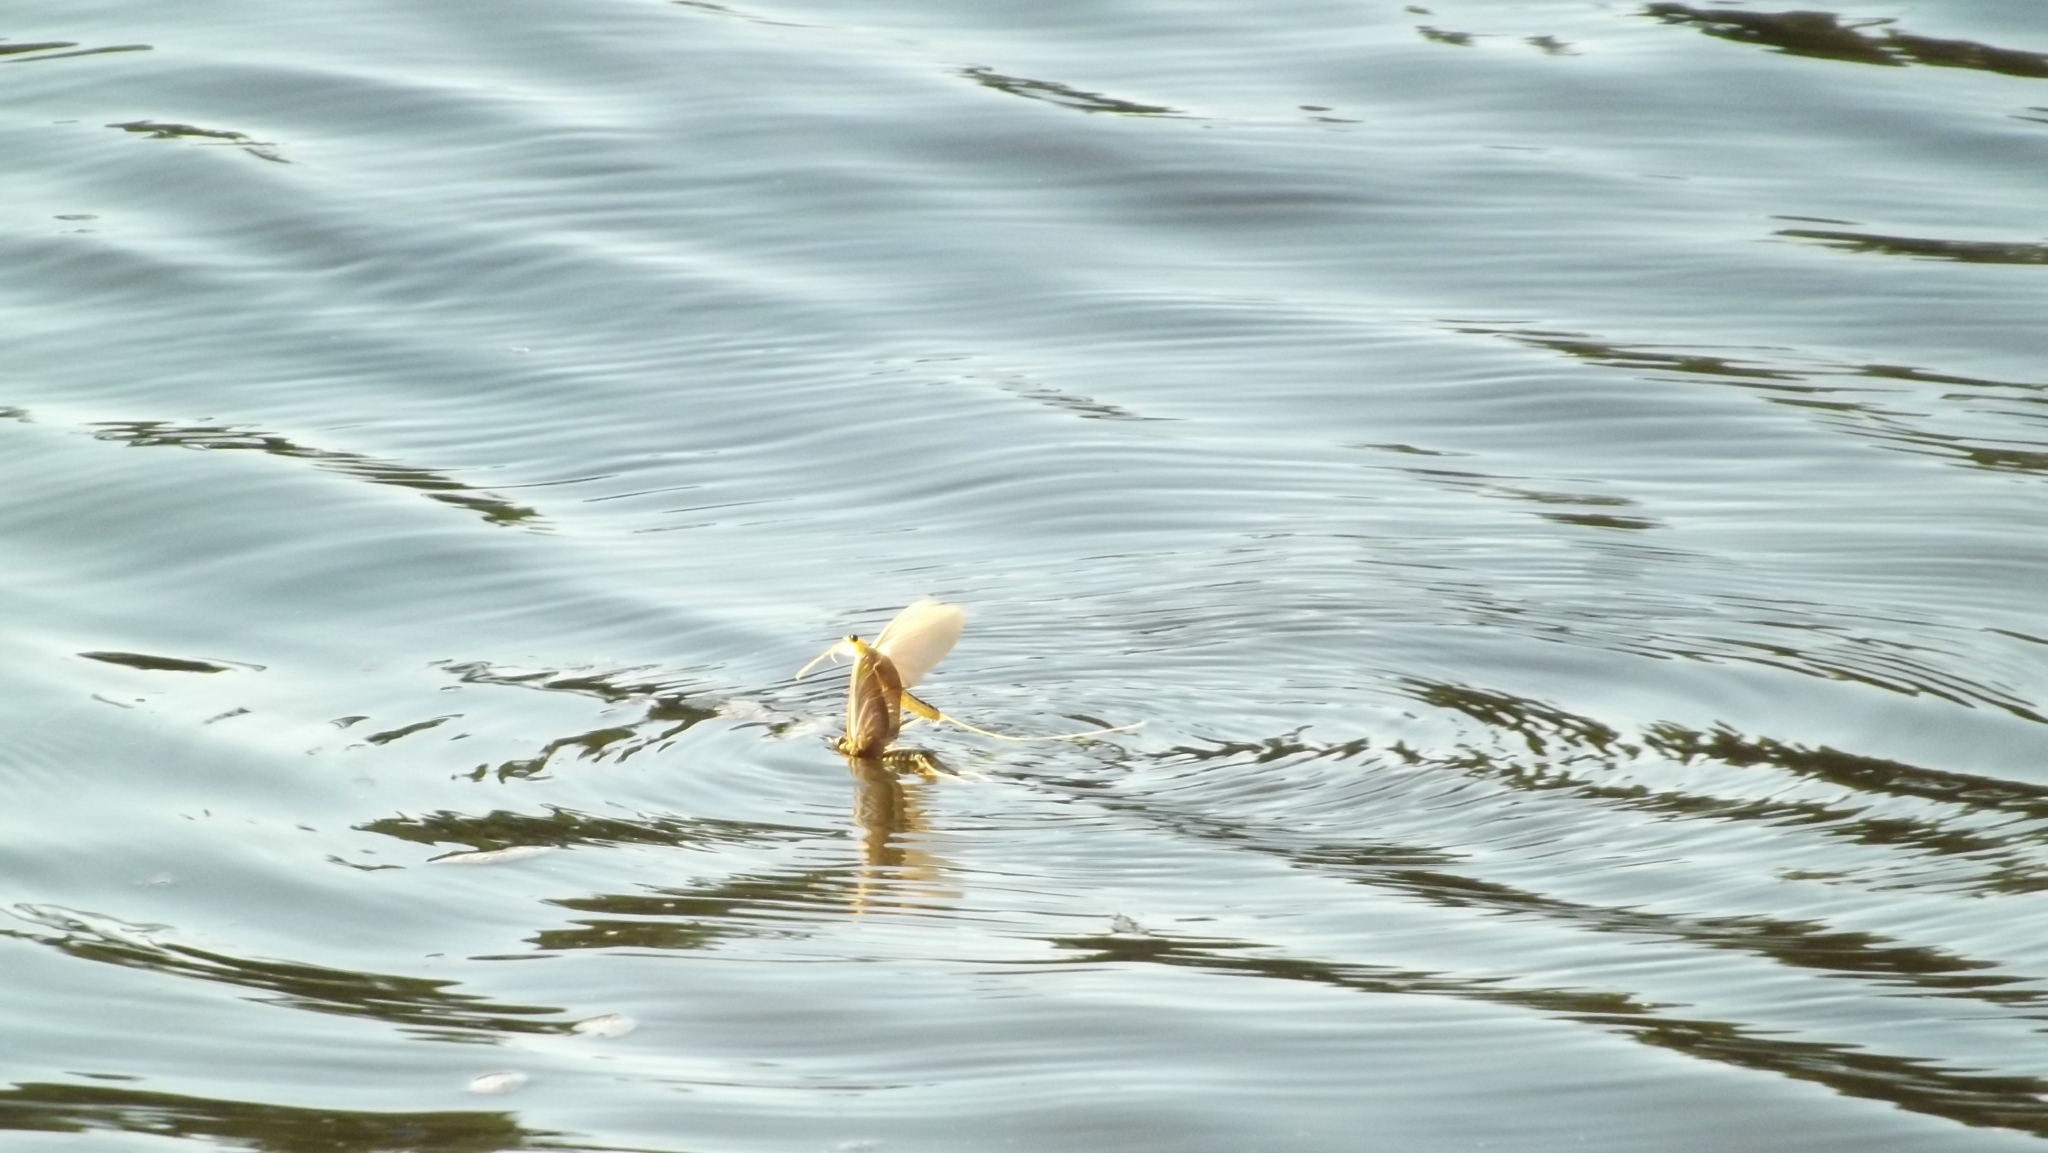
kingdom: Animalia
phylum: Arthropoda
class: Insecta
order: Ephemeroptera
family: Palingeniidae
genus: Palingenia
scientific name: Palingenia longicauda
